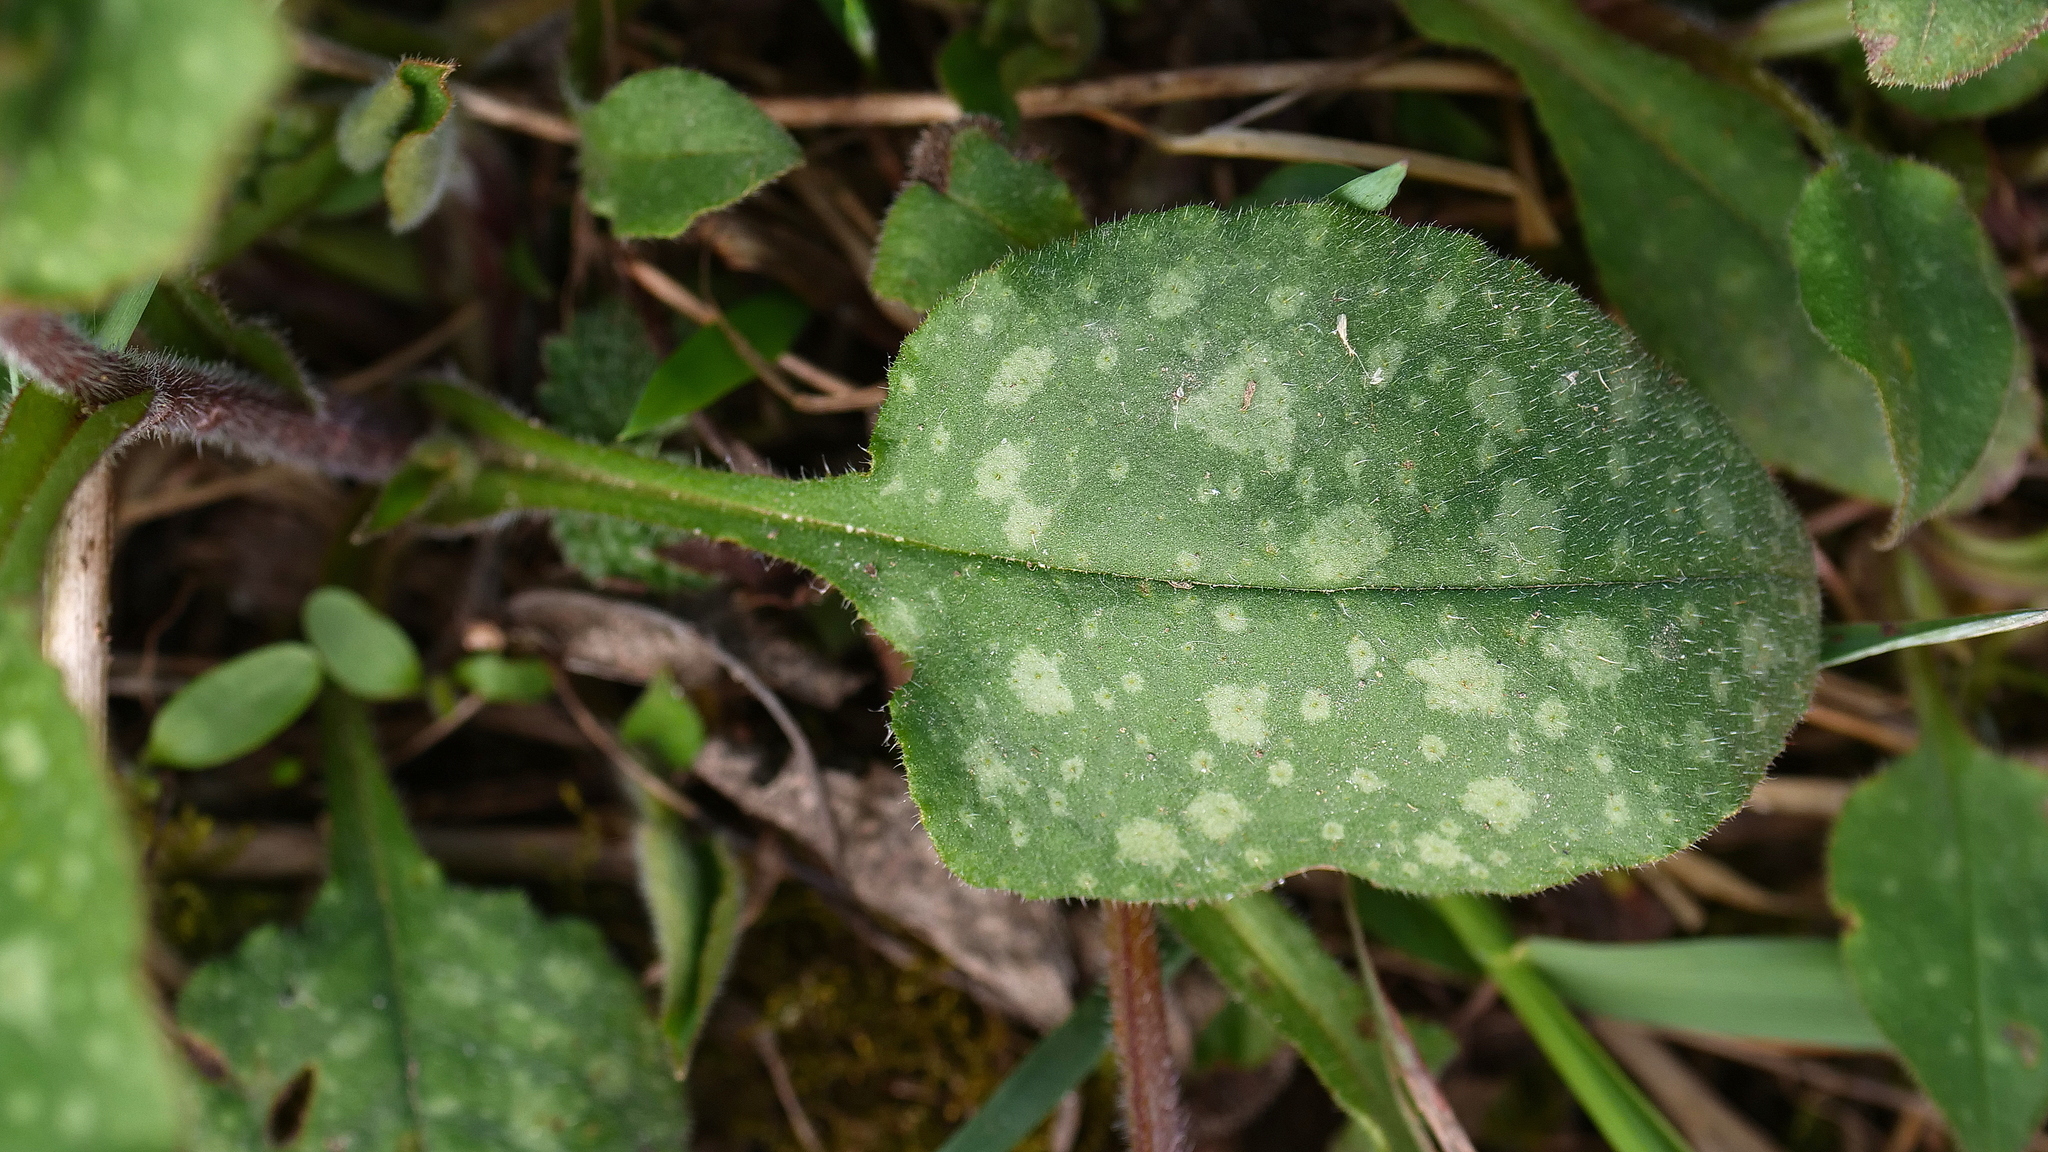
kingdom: Plantae
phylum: Tracheophyta
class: Magnoliopsida
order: Boraginales
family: Boraginaceae
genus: Pulmonaria
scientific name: Pulmonaria officinalis
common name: Lungwort
